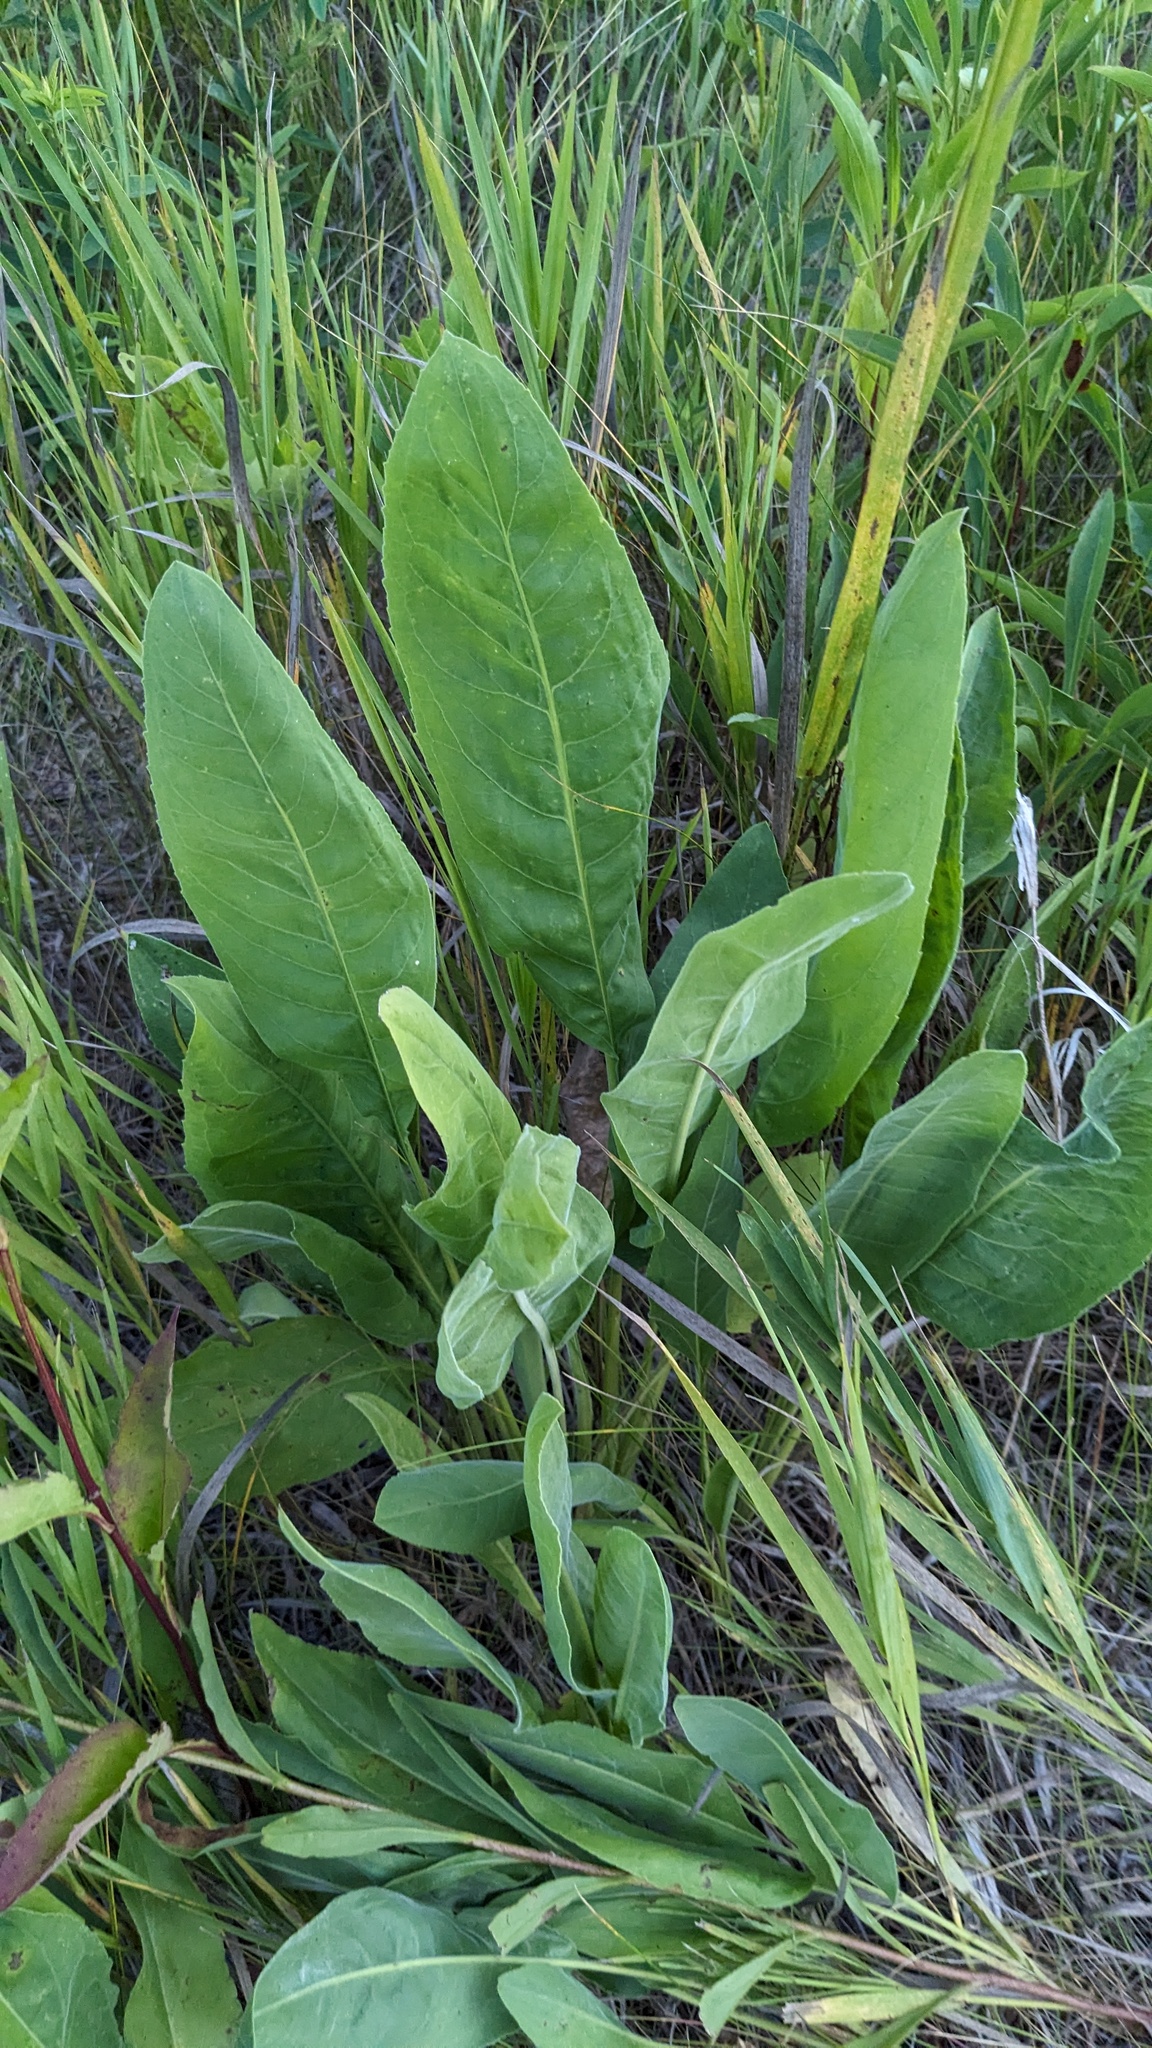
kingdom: Plantae
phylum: Tracheophyta
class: Magnoliopsida
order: Asterales
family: Asteraceae
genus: Silphium
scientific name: Silphium terebinthinaceum
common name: Basal-leaf rosinweed
